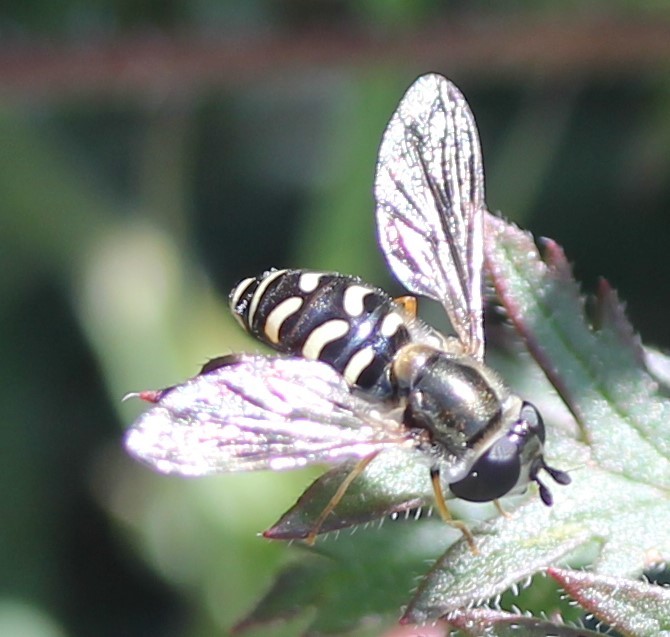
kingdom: Animalia
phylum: Arthropoda
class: Insecta
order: Diptera
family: Syrphidae
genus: Eupeodes
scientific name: Eupeodes volucris
